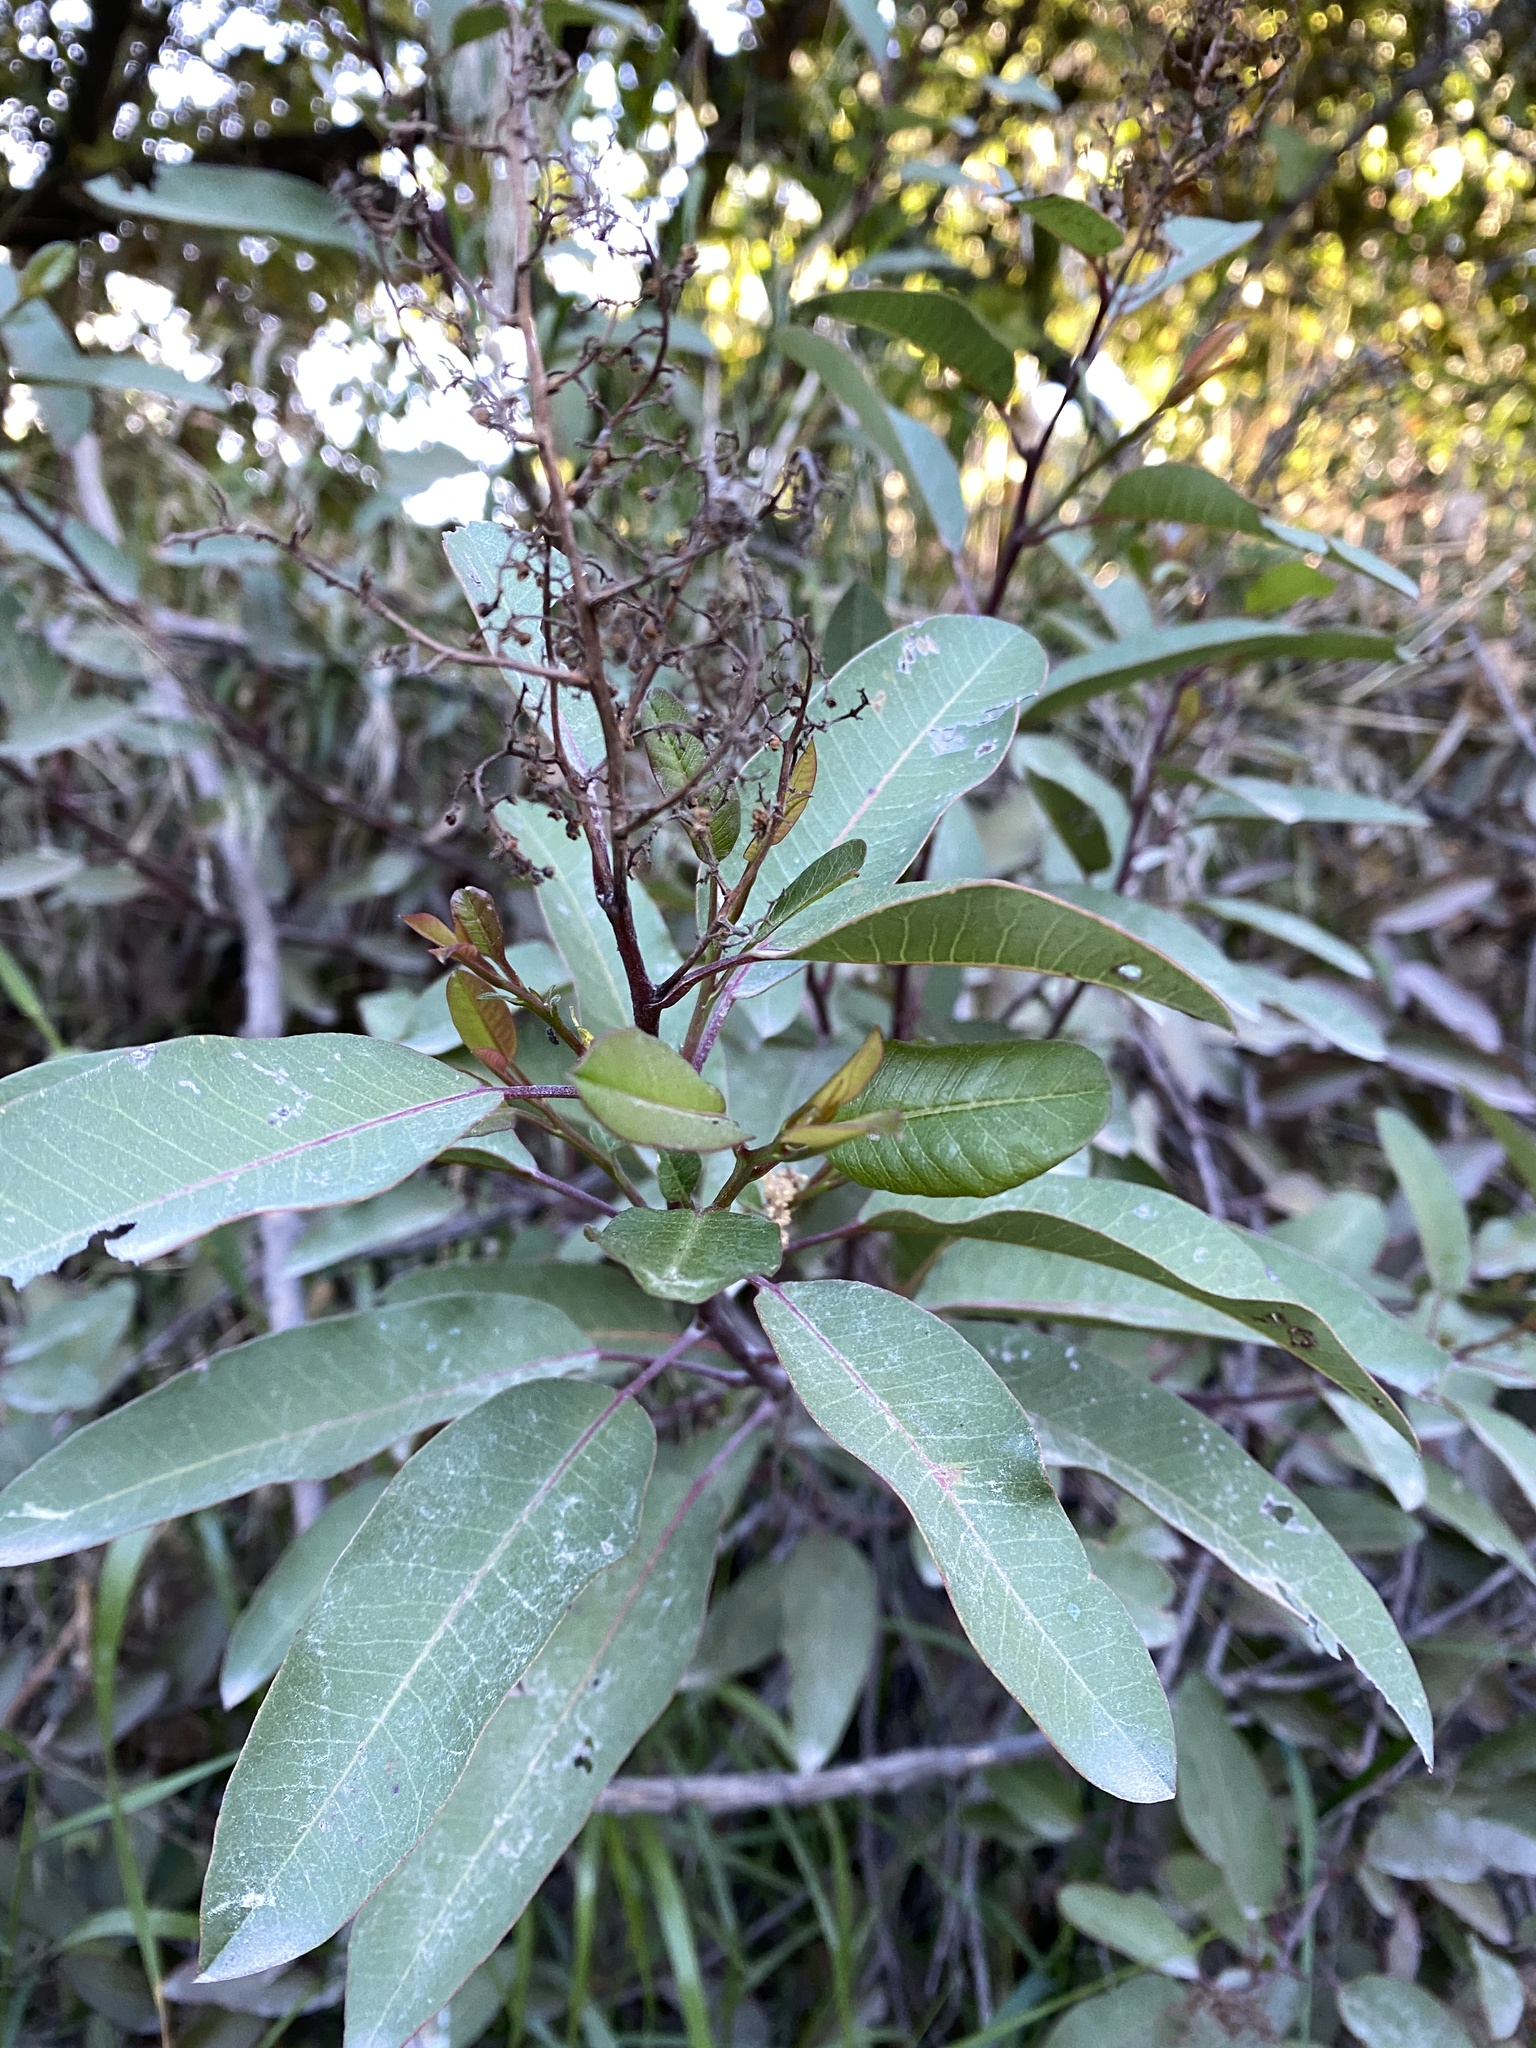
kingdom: Plantae
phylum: Tracheophyta
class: Magnoliopsida
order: Sapindales
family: Anacardiaceae
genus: Malosma
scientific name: Malosma laurina
